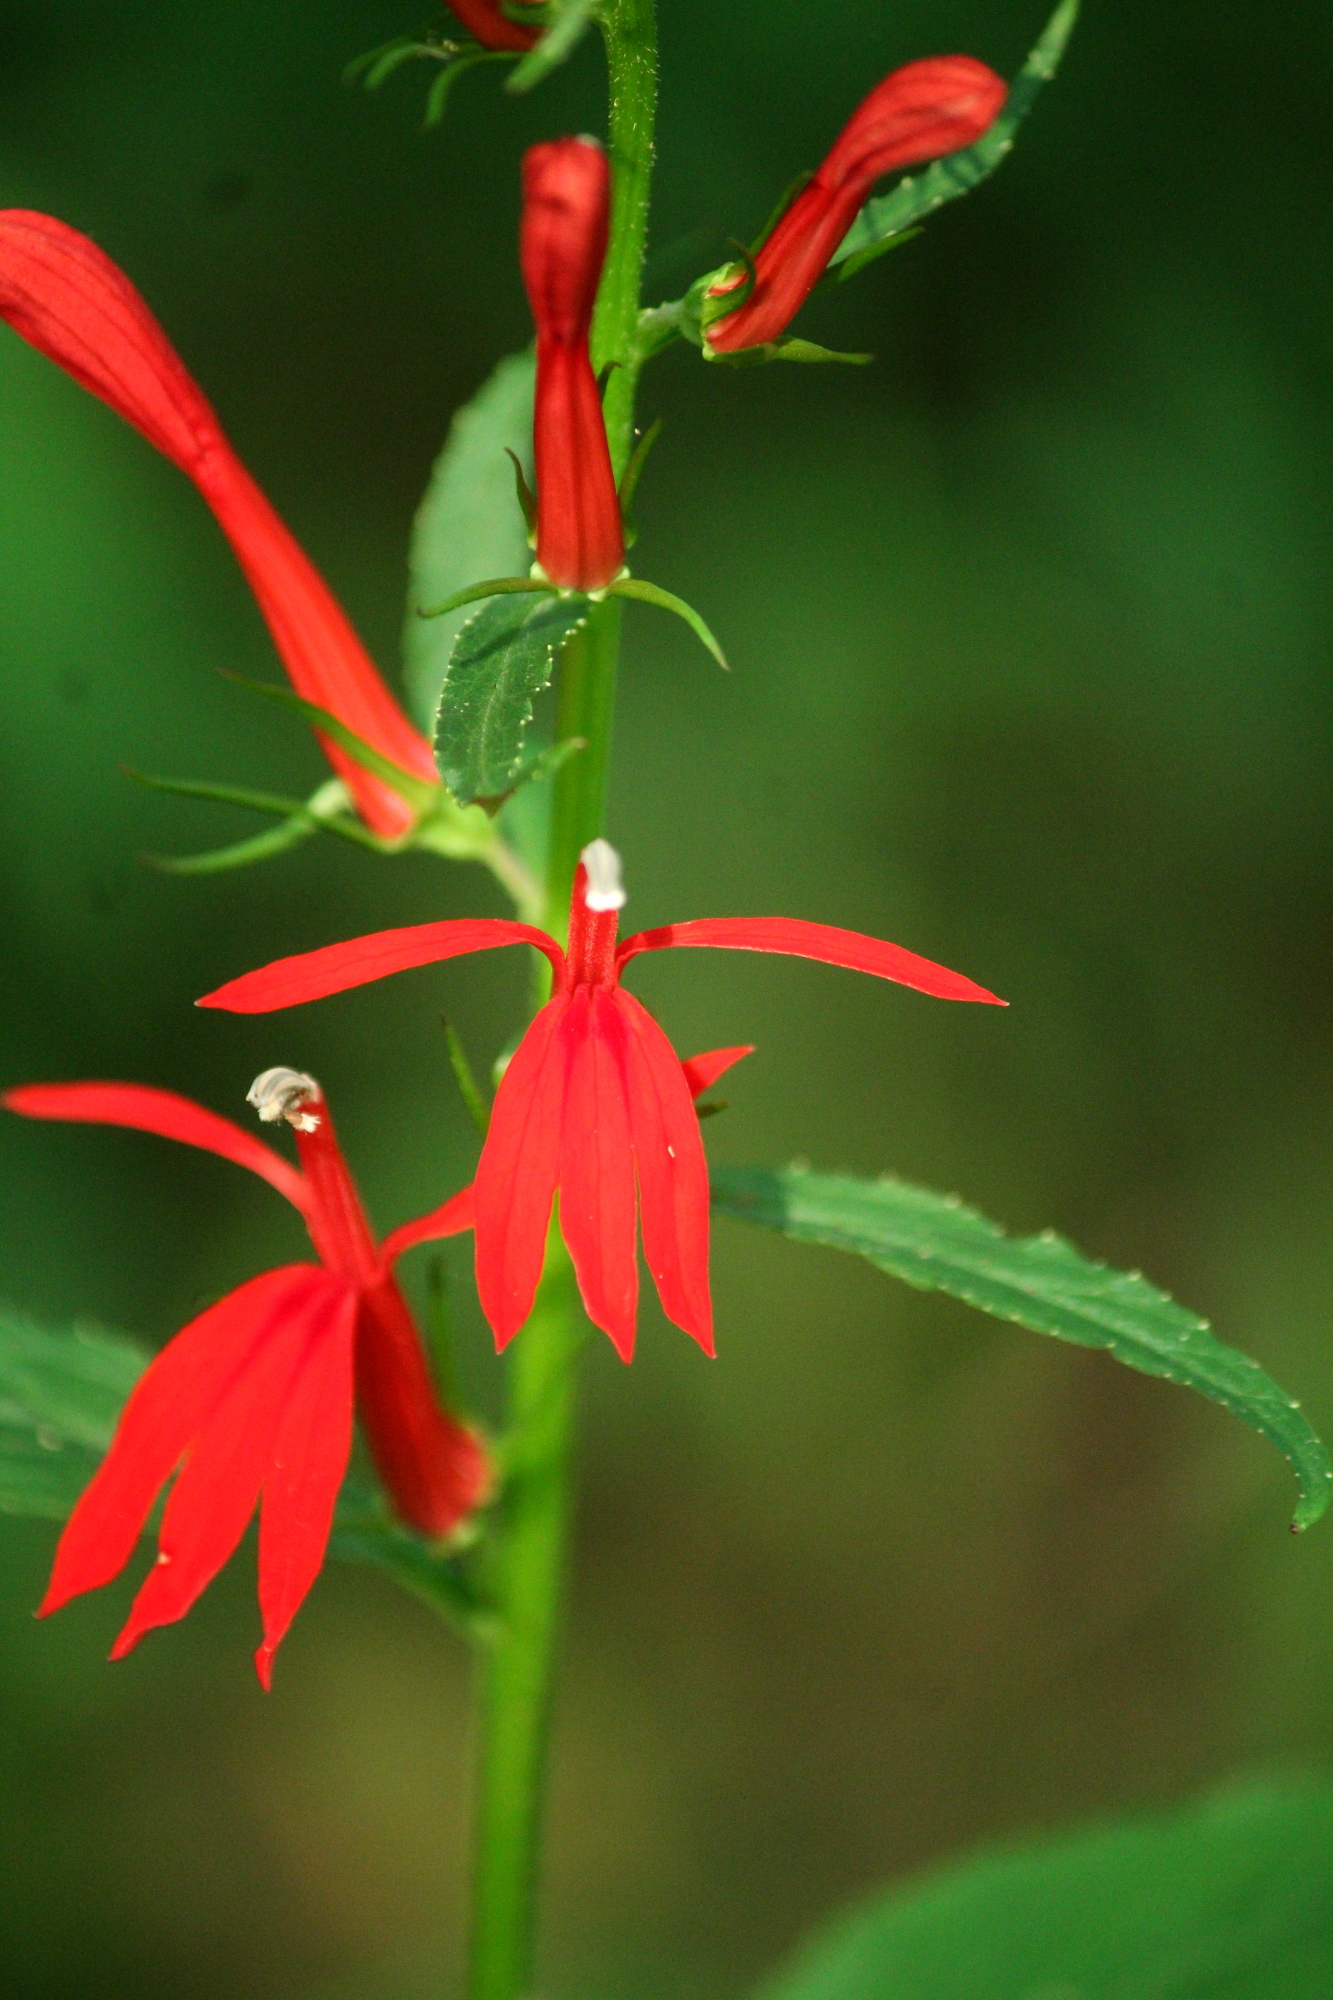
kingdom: Plantae
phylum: Tracheophyta
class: Magnoliopsida
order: Asterales
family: Campanulaceae
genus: Lobelia
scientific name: Lobelia cardinalis
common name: Cardinal flower
